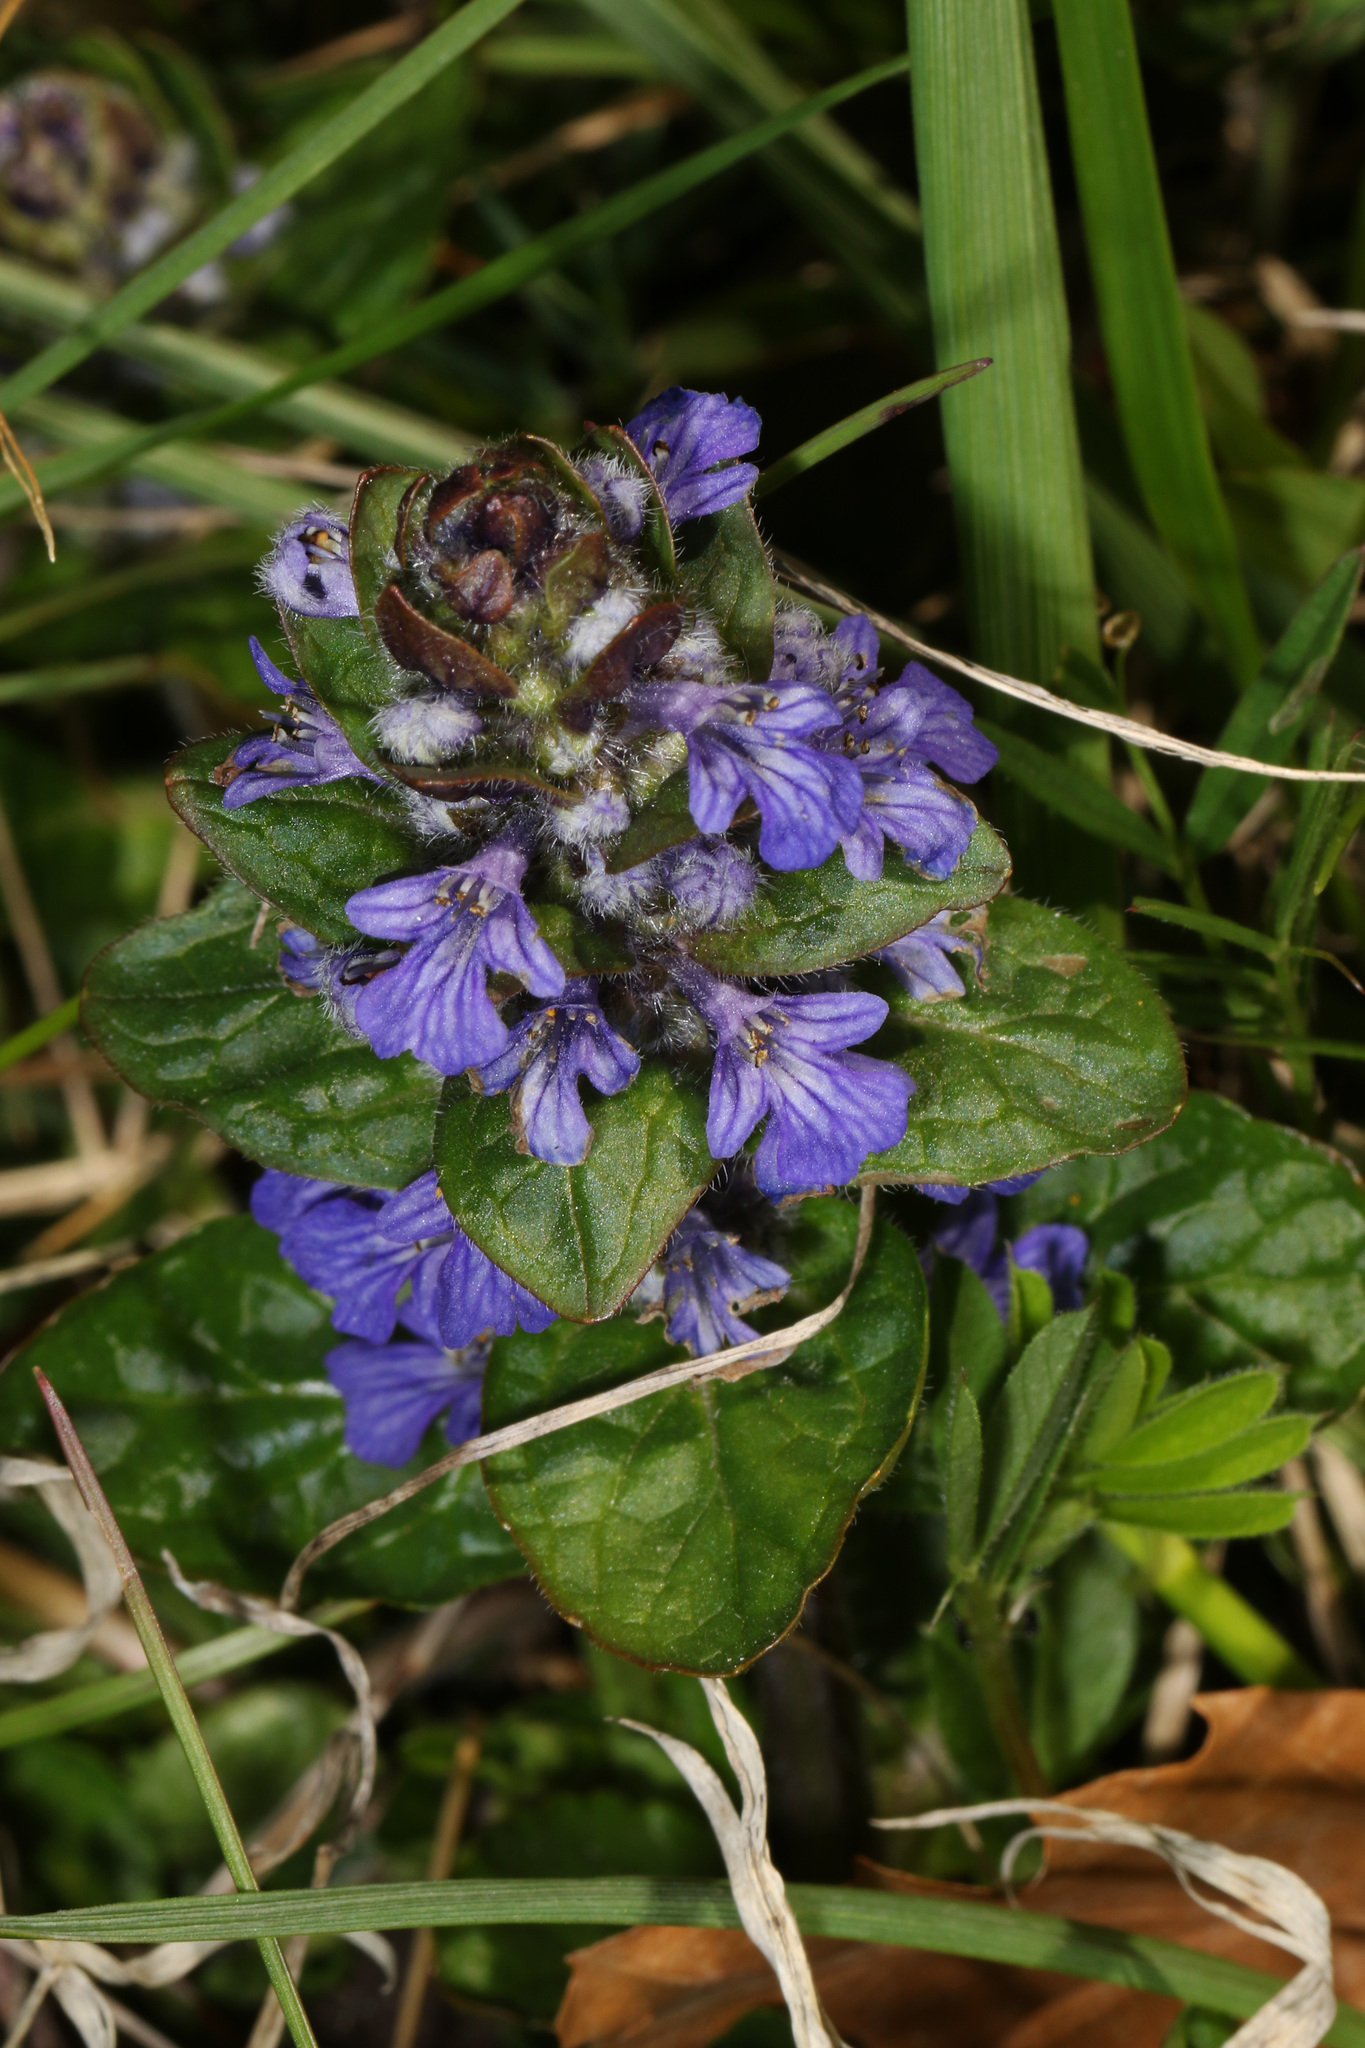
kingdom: Plantae
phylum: Tracheophyta
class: Magnoliopsida
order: Lamiales
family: Lamiaceae
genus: Ajuga
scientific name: Ajuga reptans
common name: Bugle
